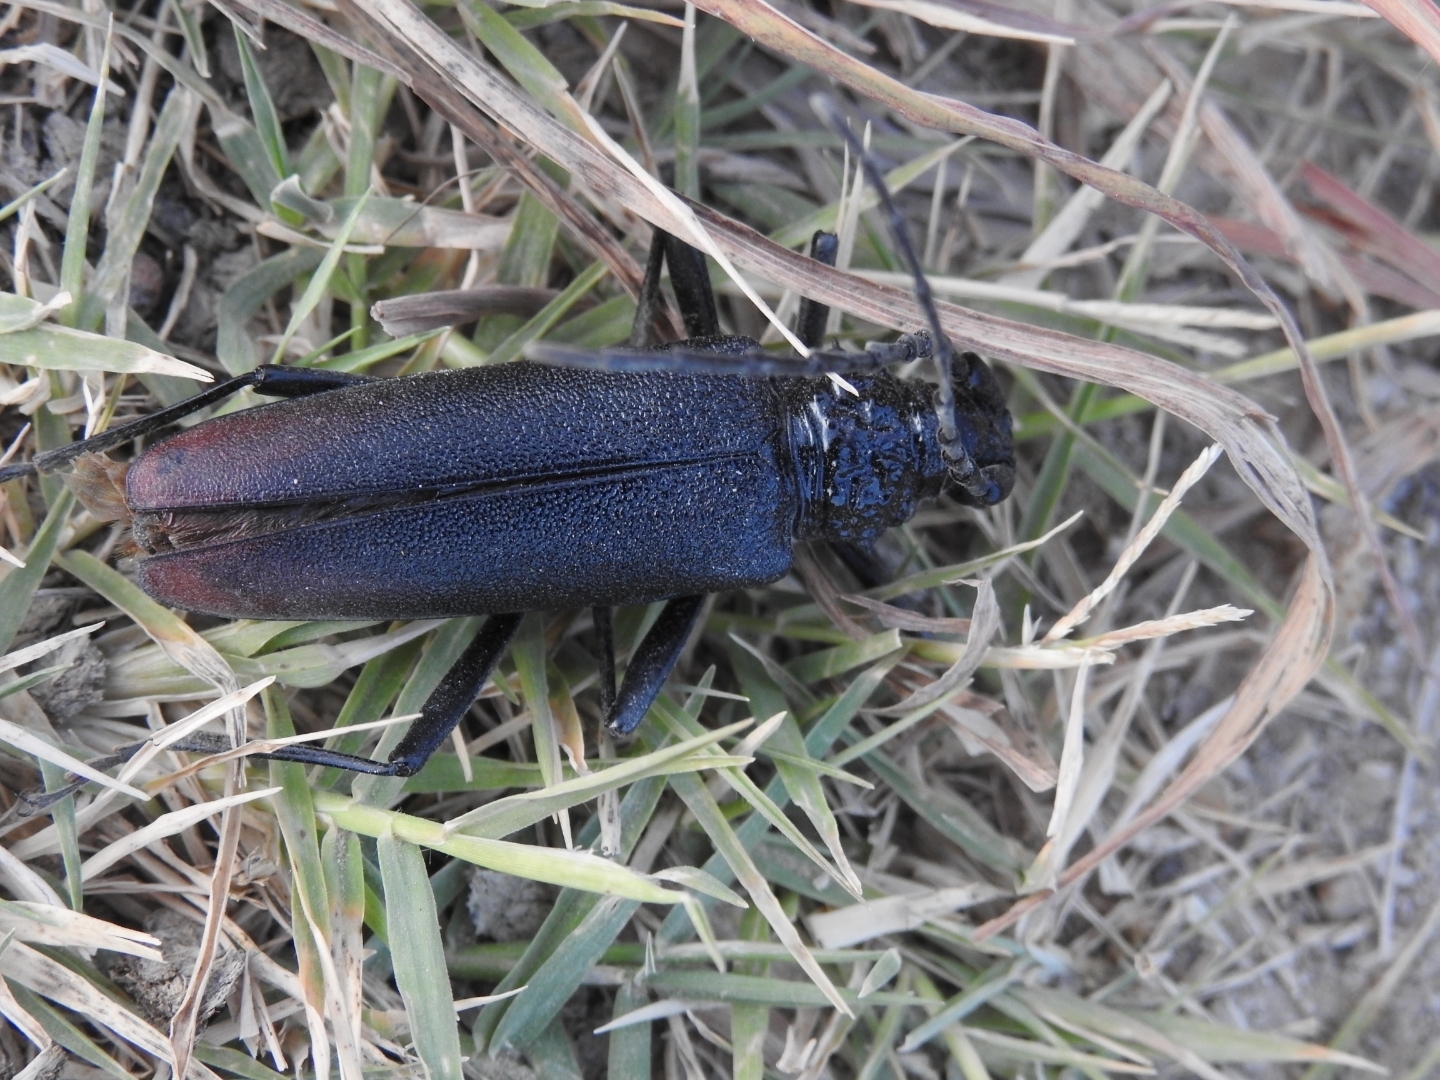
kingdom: Animalia
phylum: Arthropoda
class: Insecta
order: Coleoptera
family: Cerambycidae
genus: Cerambyx
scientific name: Cerambyx cerdo
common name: Cerambyx longicorn
